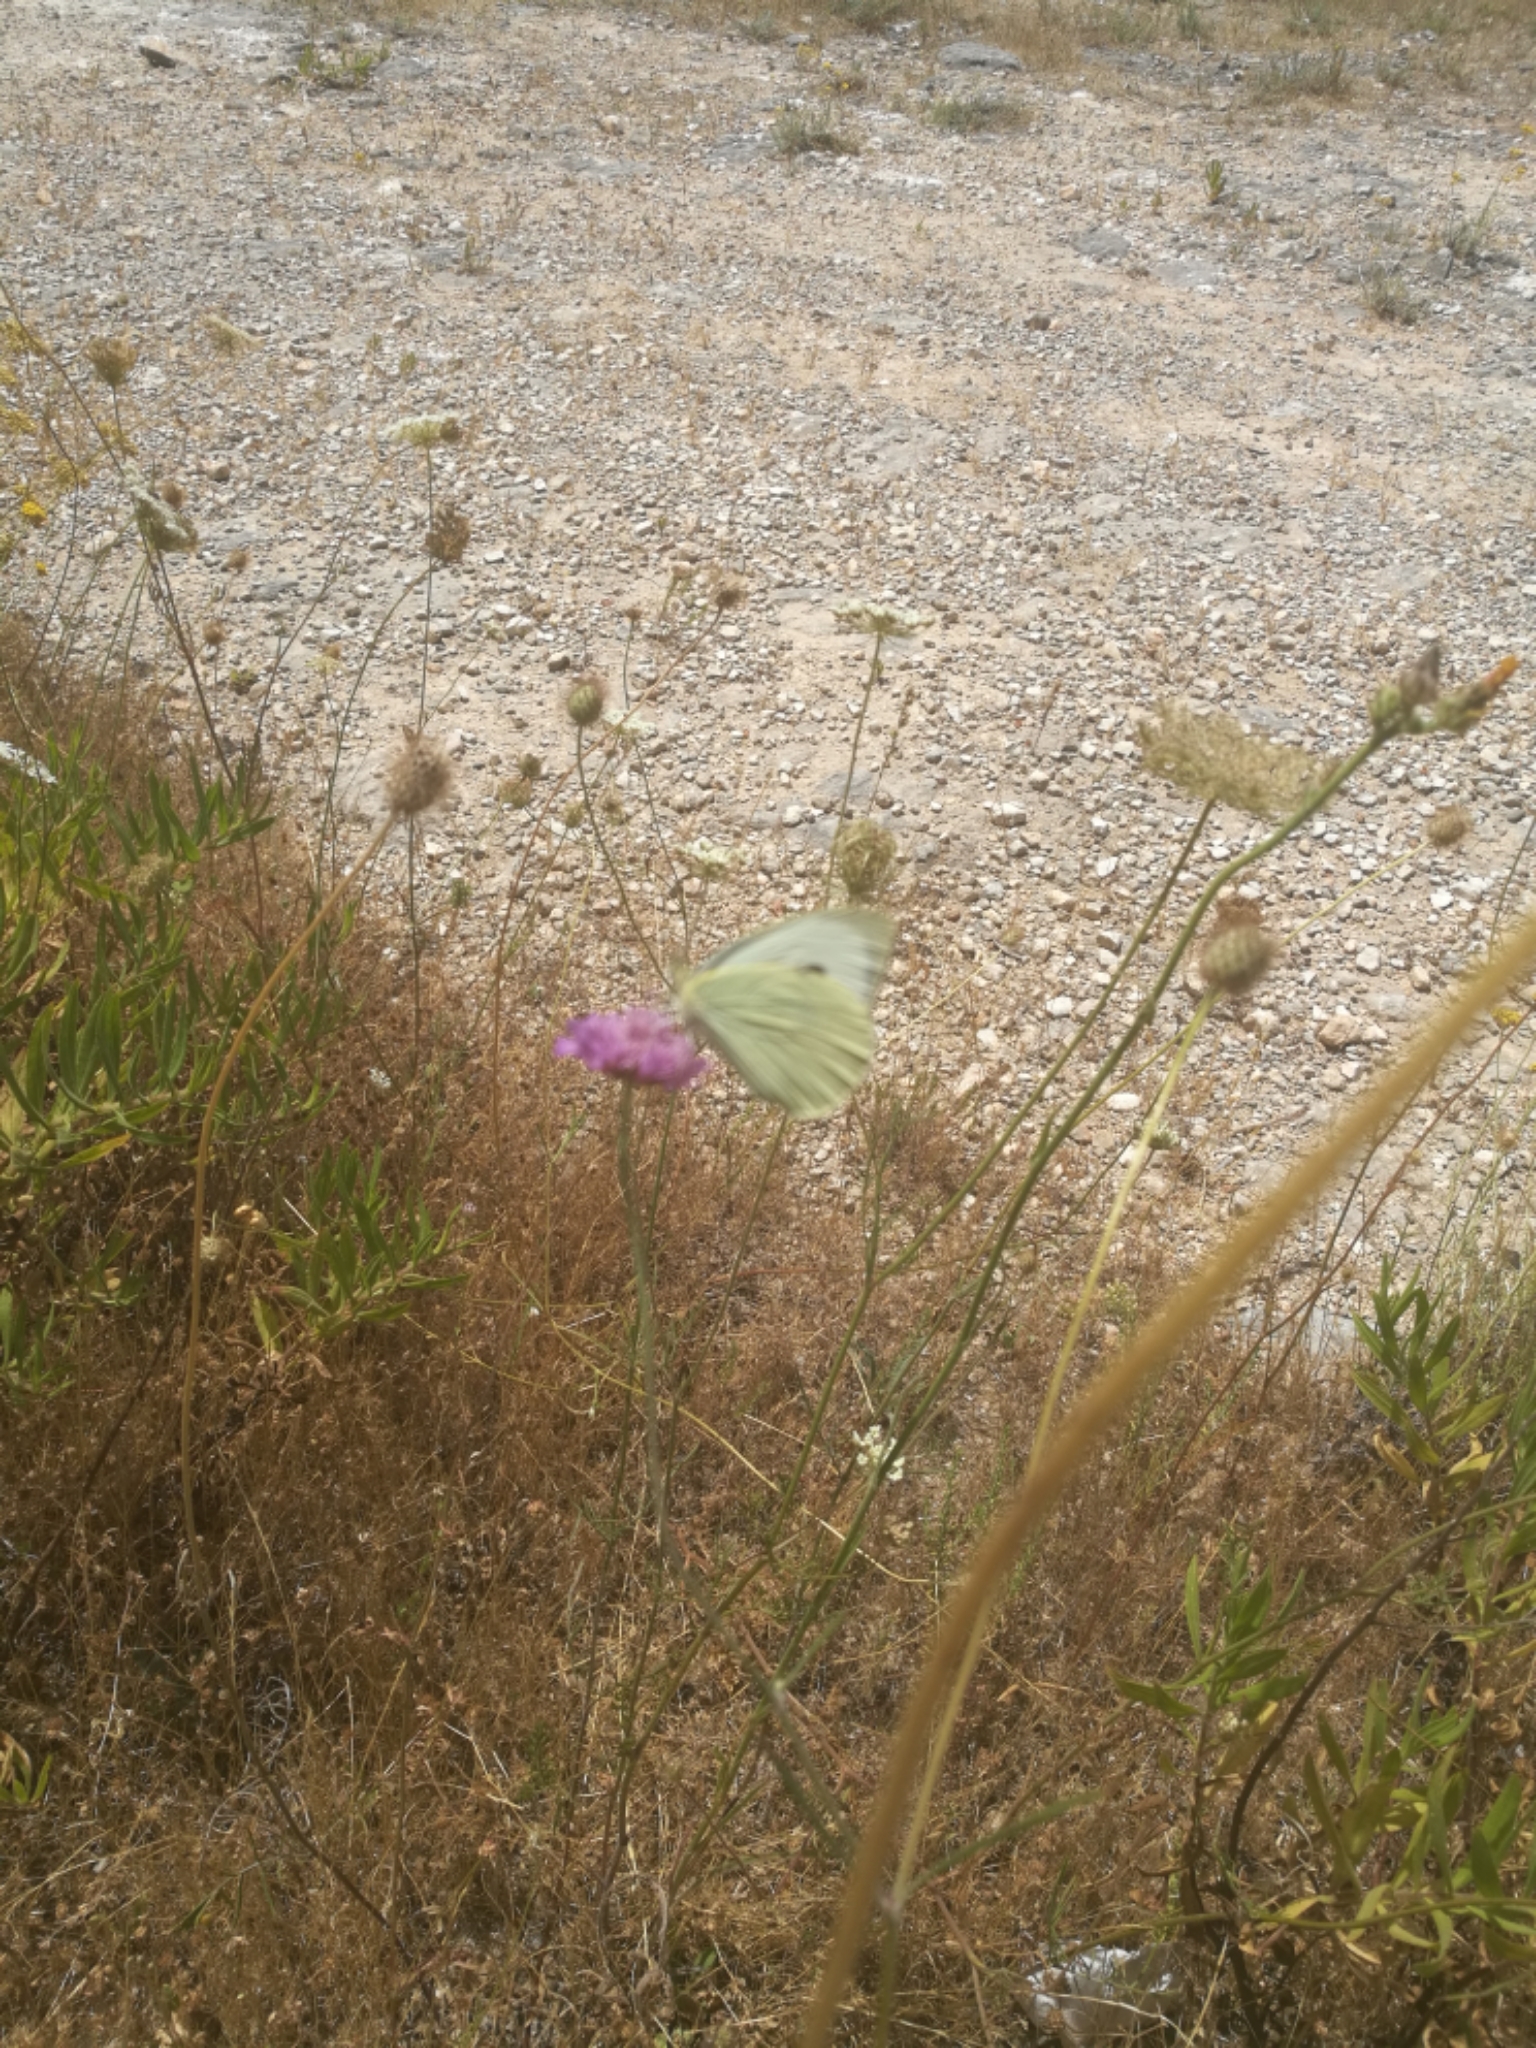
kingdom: Animalia
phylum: Arthropoda
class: Insecta
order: Lepidoptera
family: Pieridae
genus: Pieris
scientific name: Pieris brassicae
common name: Large white
